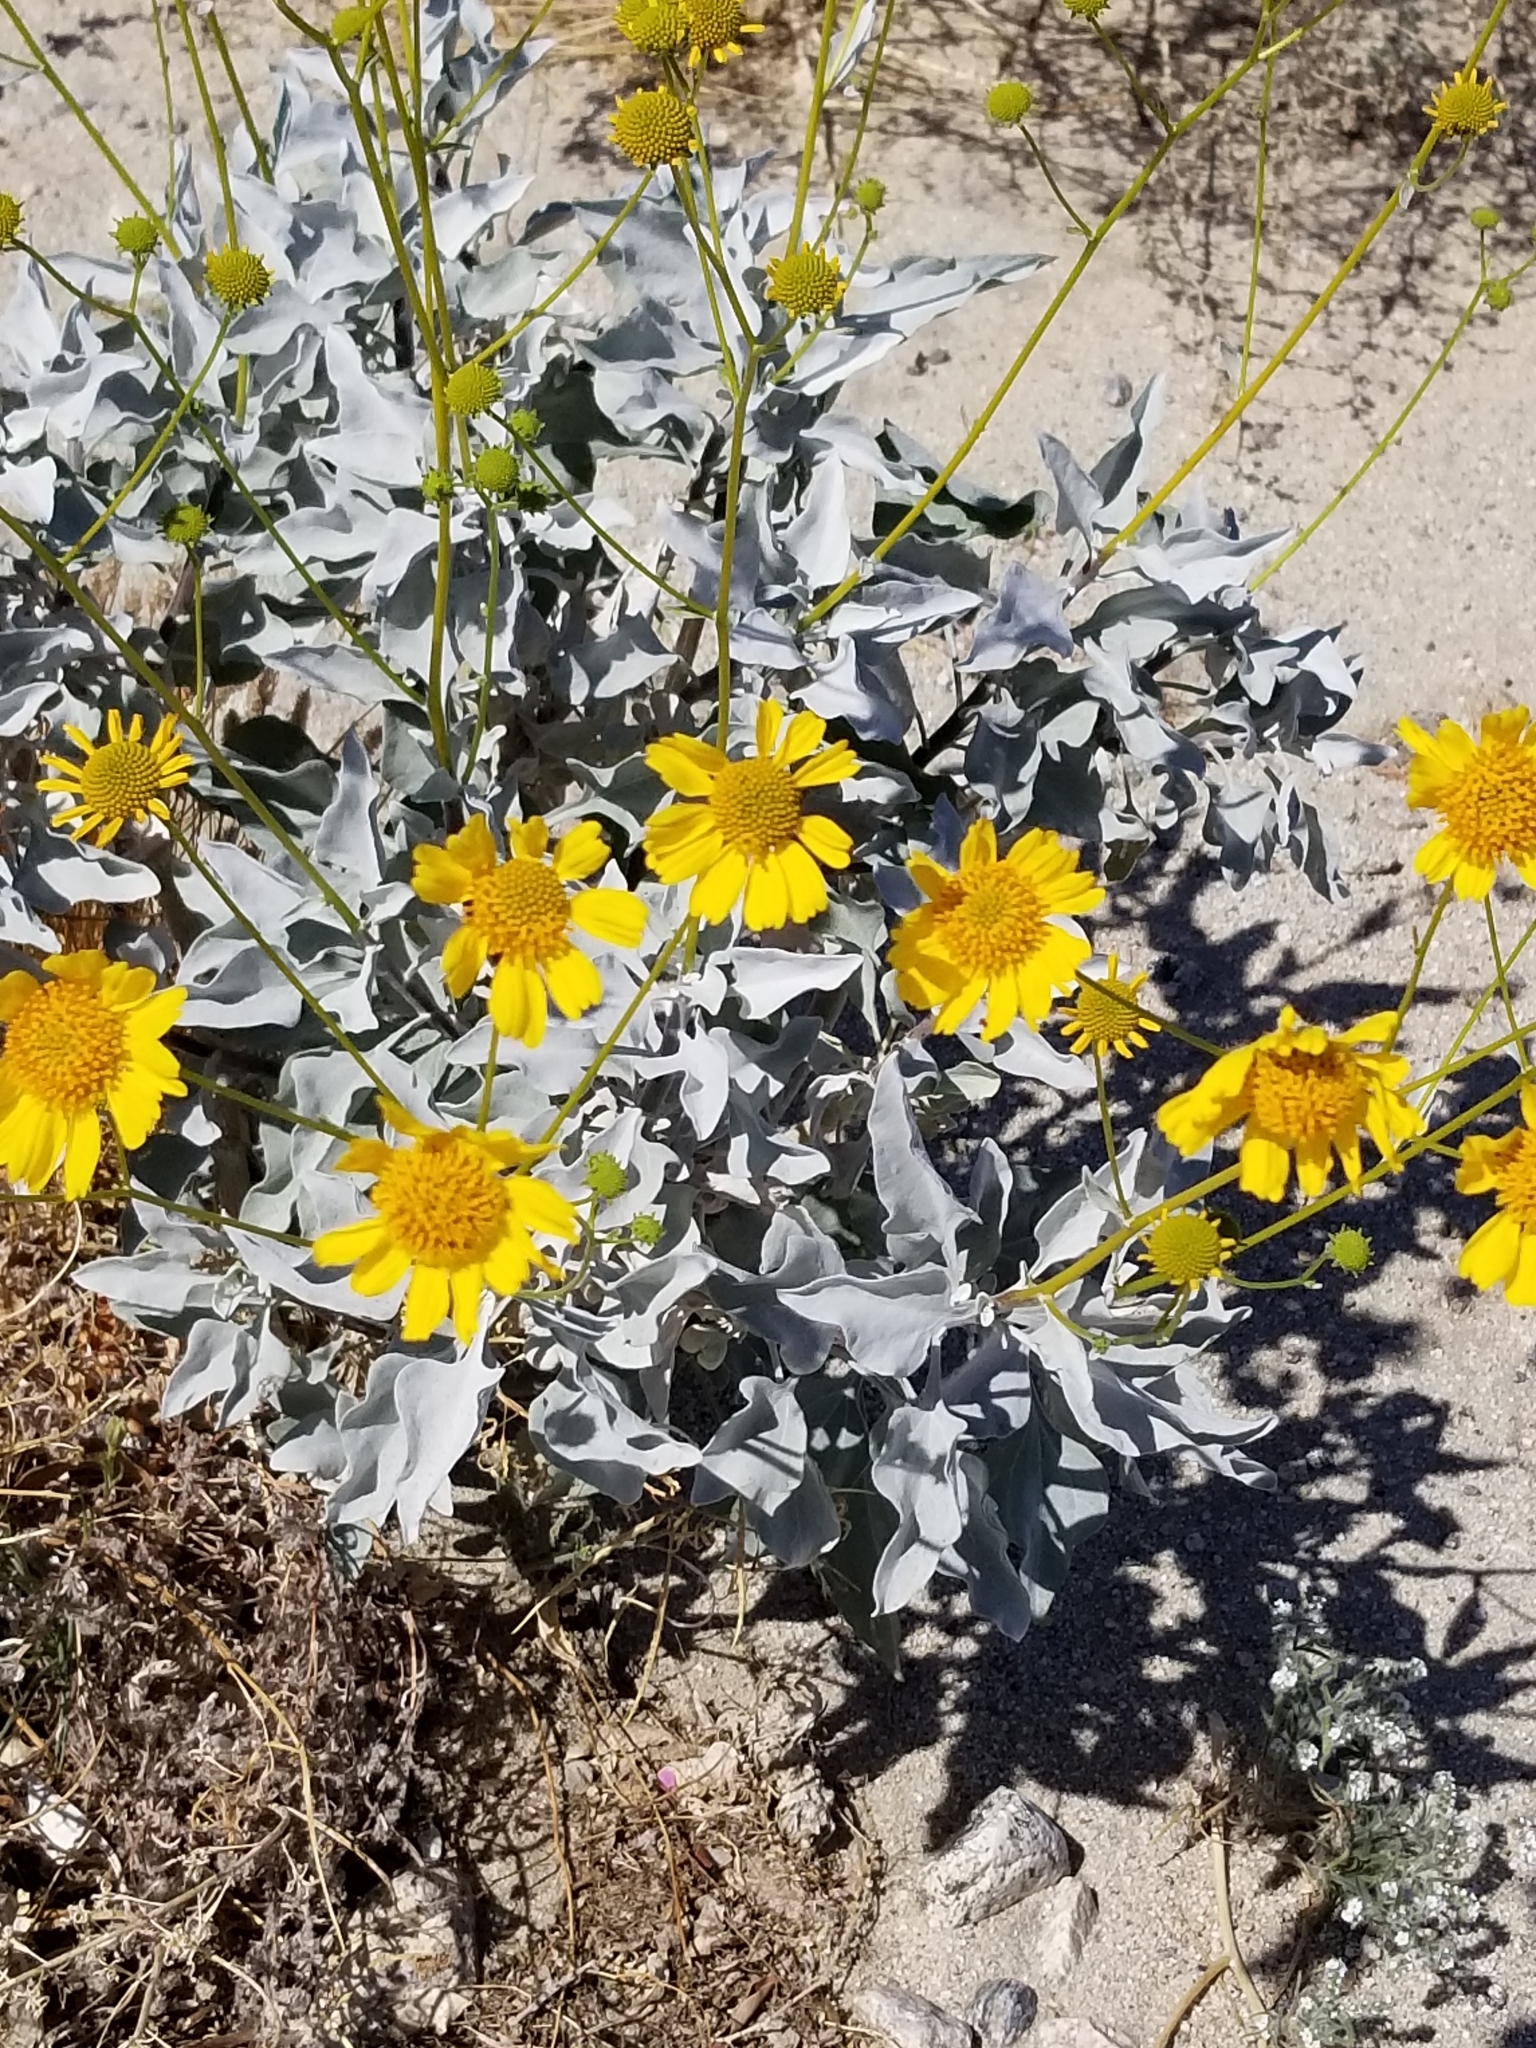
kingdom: Plantae
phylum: Tracheophyta
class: Magnoliopsida
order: Asterales
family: Asteraceae
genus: Encelia
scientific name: Encelia farinosa
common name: Brittlebush
